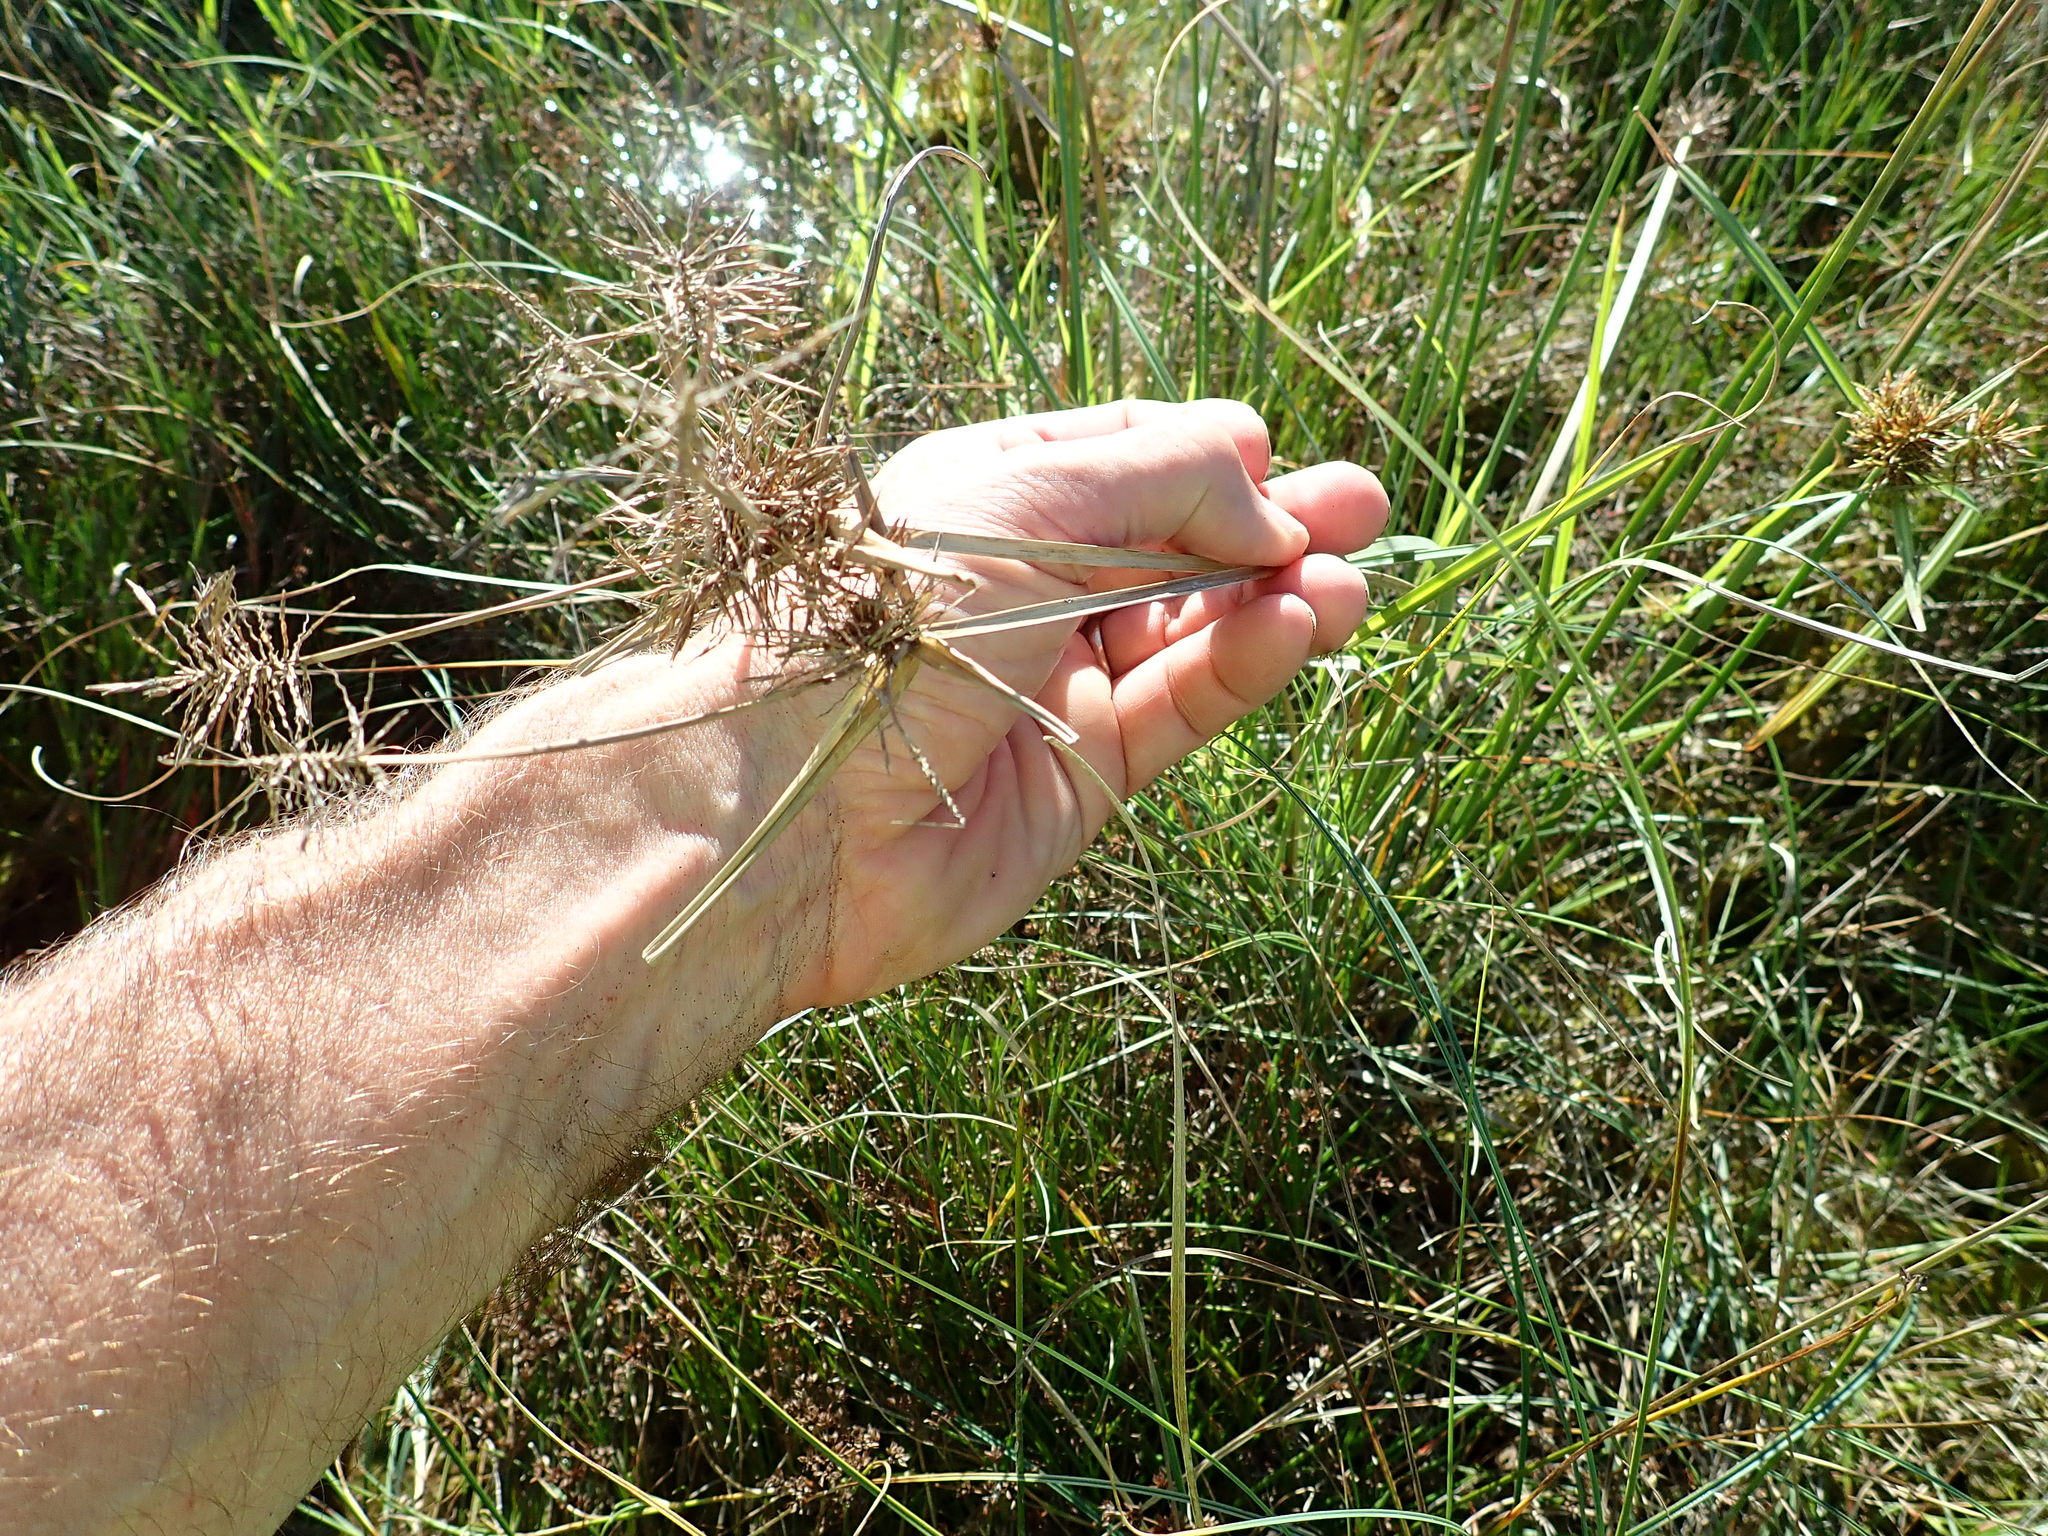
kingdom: Plantae
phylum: Tracheophyta
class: Liliopsida
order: Poales
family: Cyperaceae
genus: Cyperus
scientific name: Cyperus eragrostis
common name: Tall flatsedge
